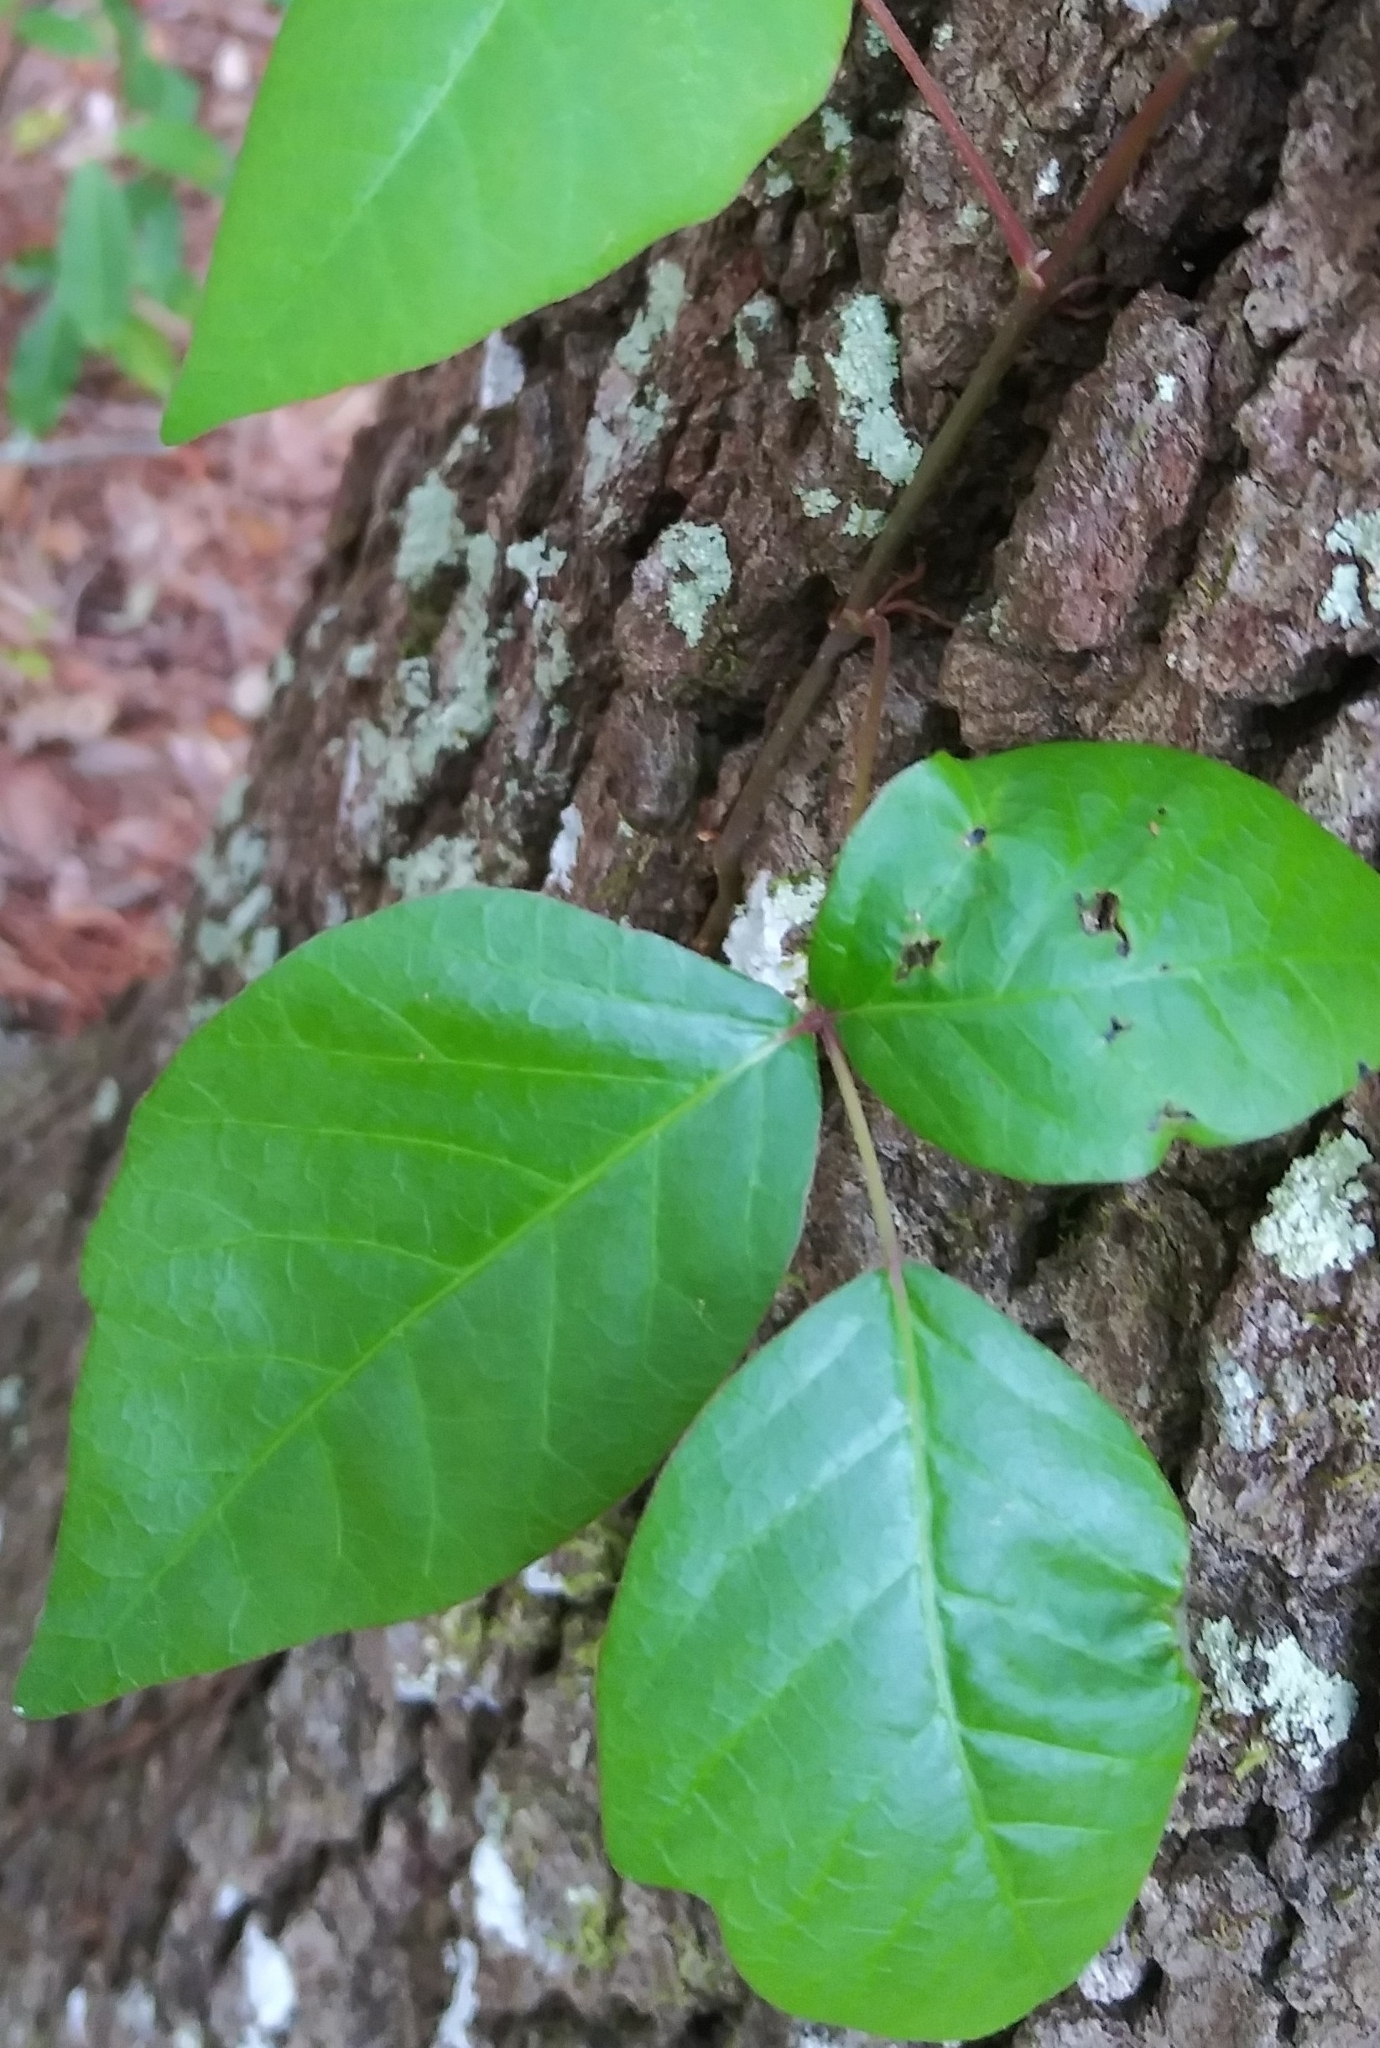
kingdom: Plantae
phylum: Tracheophyta
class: Magnoliopsida
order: Sapindales
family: Anacardiaceae
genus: Toxicodendron
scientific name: Toxicodendron radicans
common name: Poison ivy
